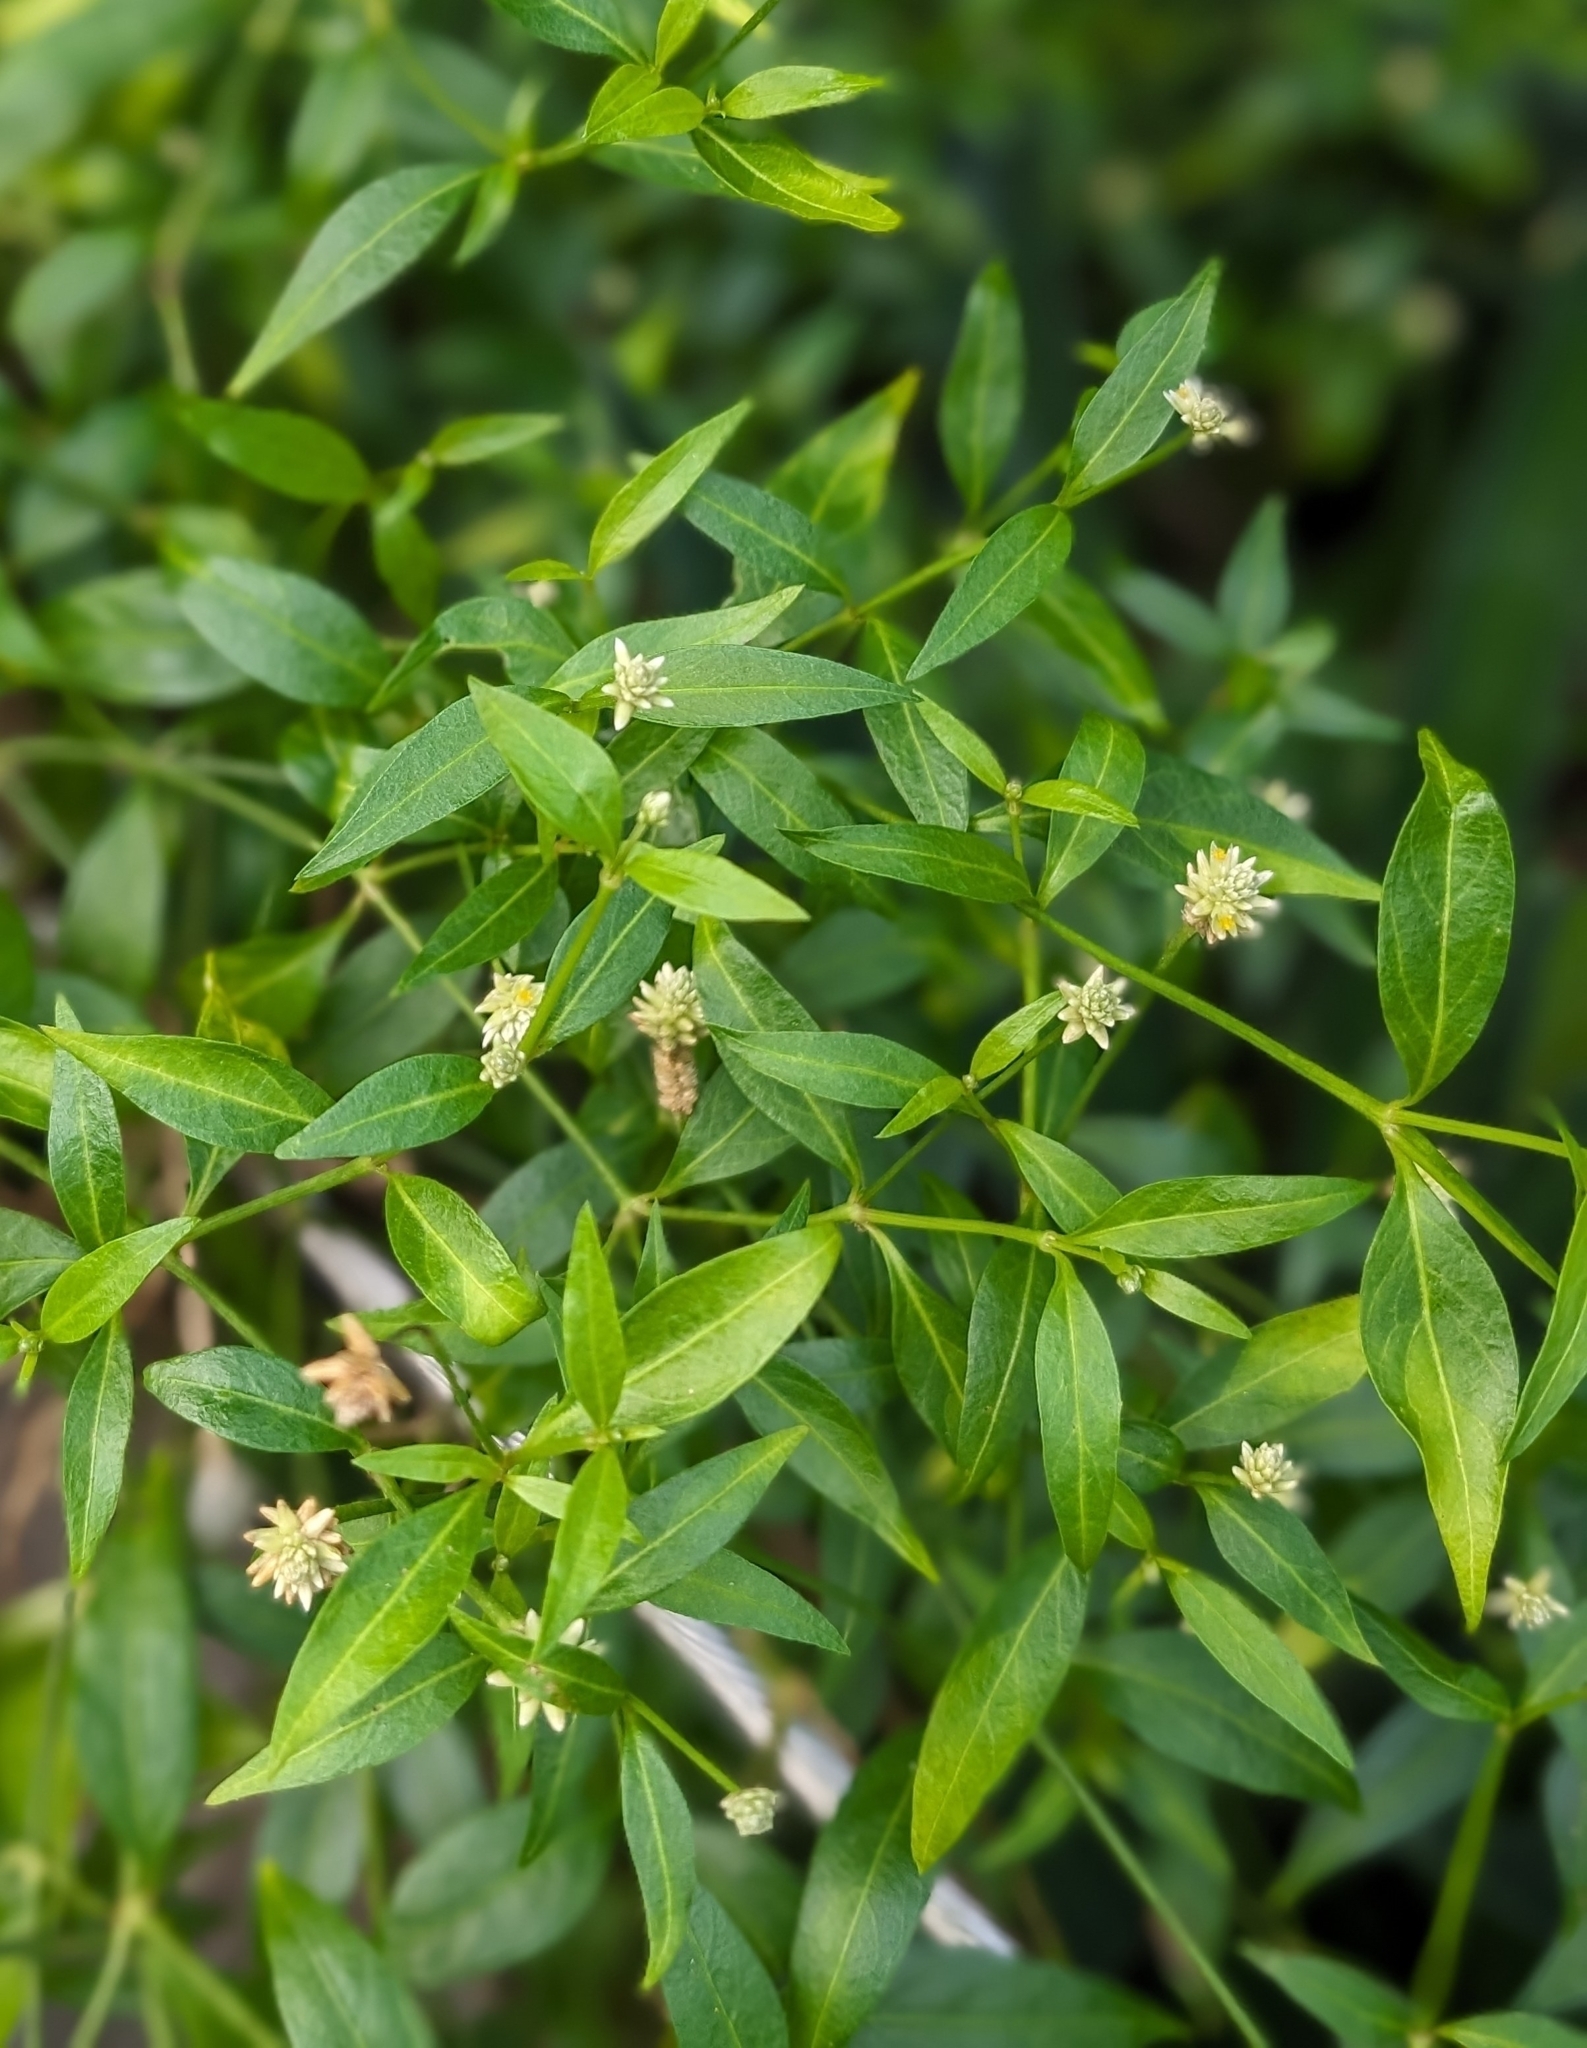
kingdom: Plantae
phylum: Tracheophyta
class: Magnoliopsida
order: Caryophyllales
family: Amaranthaceae
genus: Alternanthera
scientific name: Alternanthera flavescens
